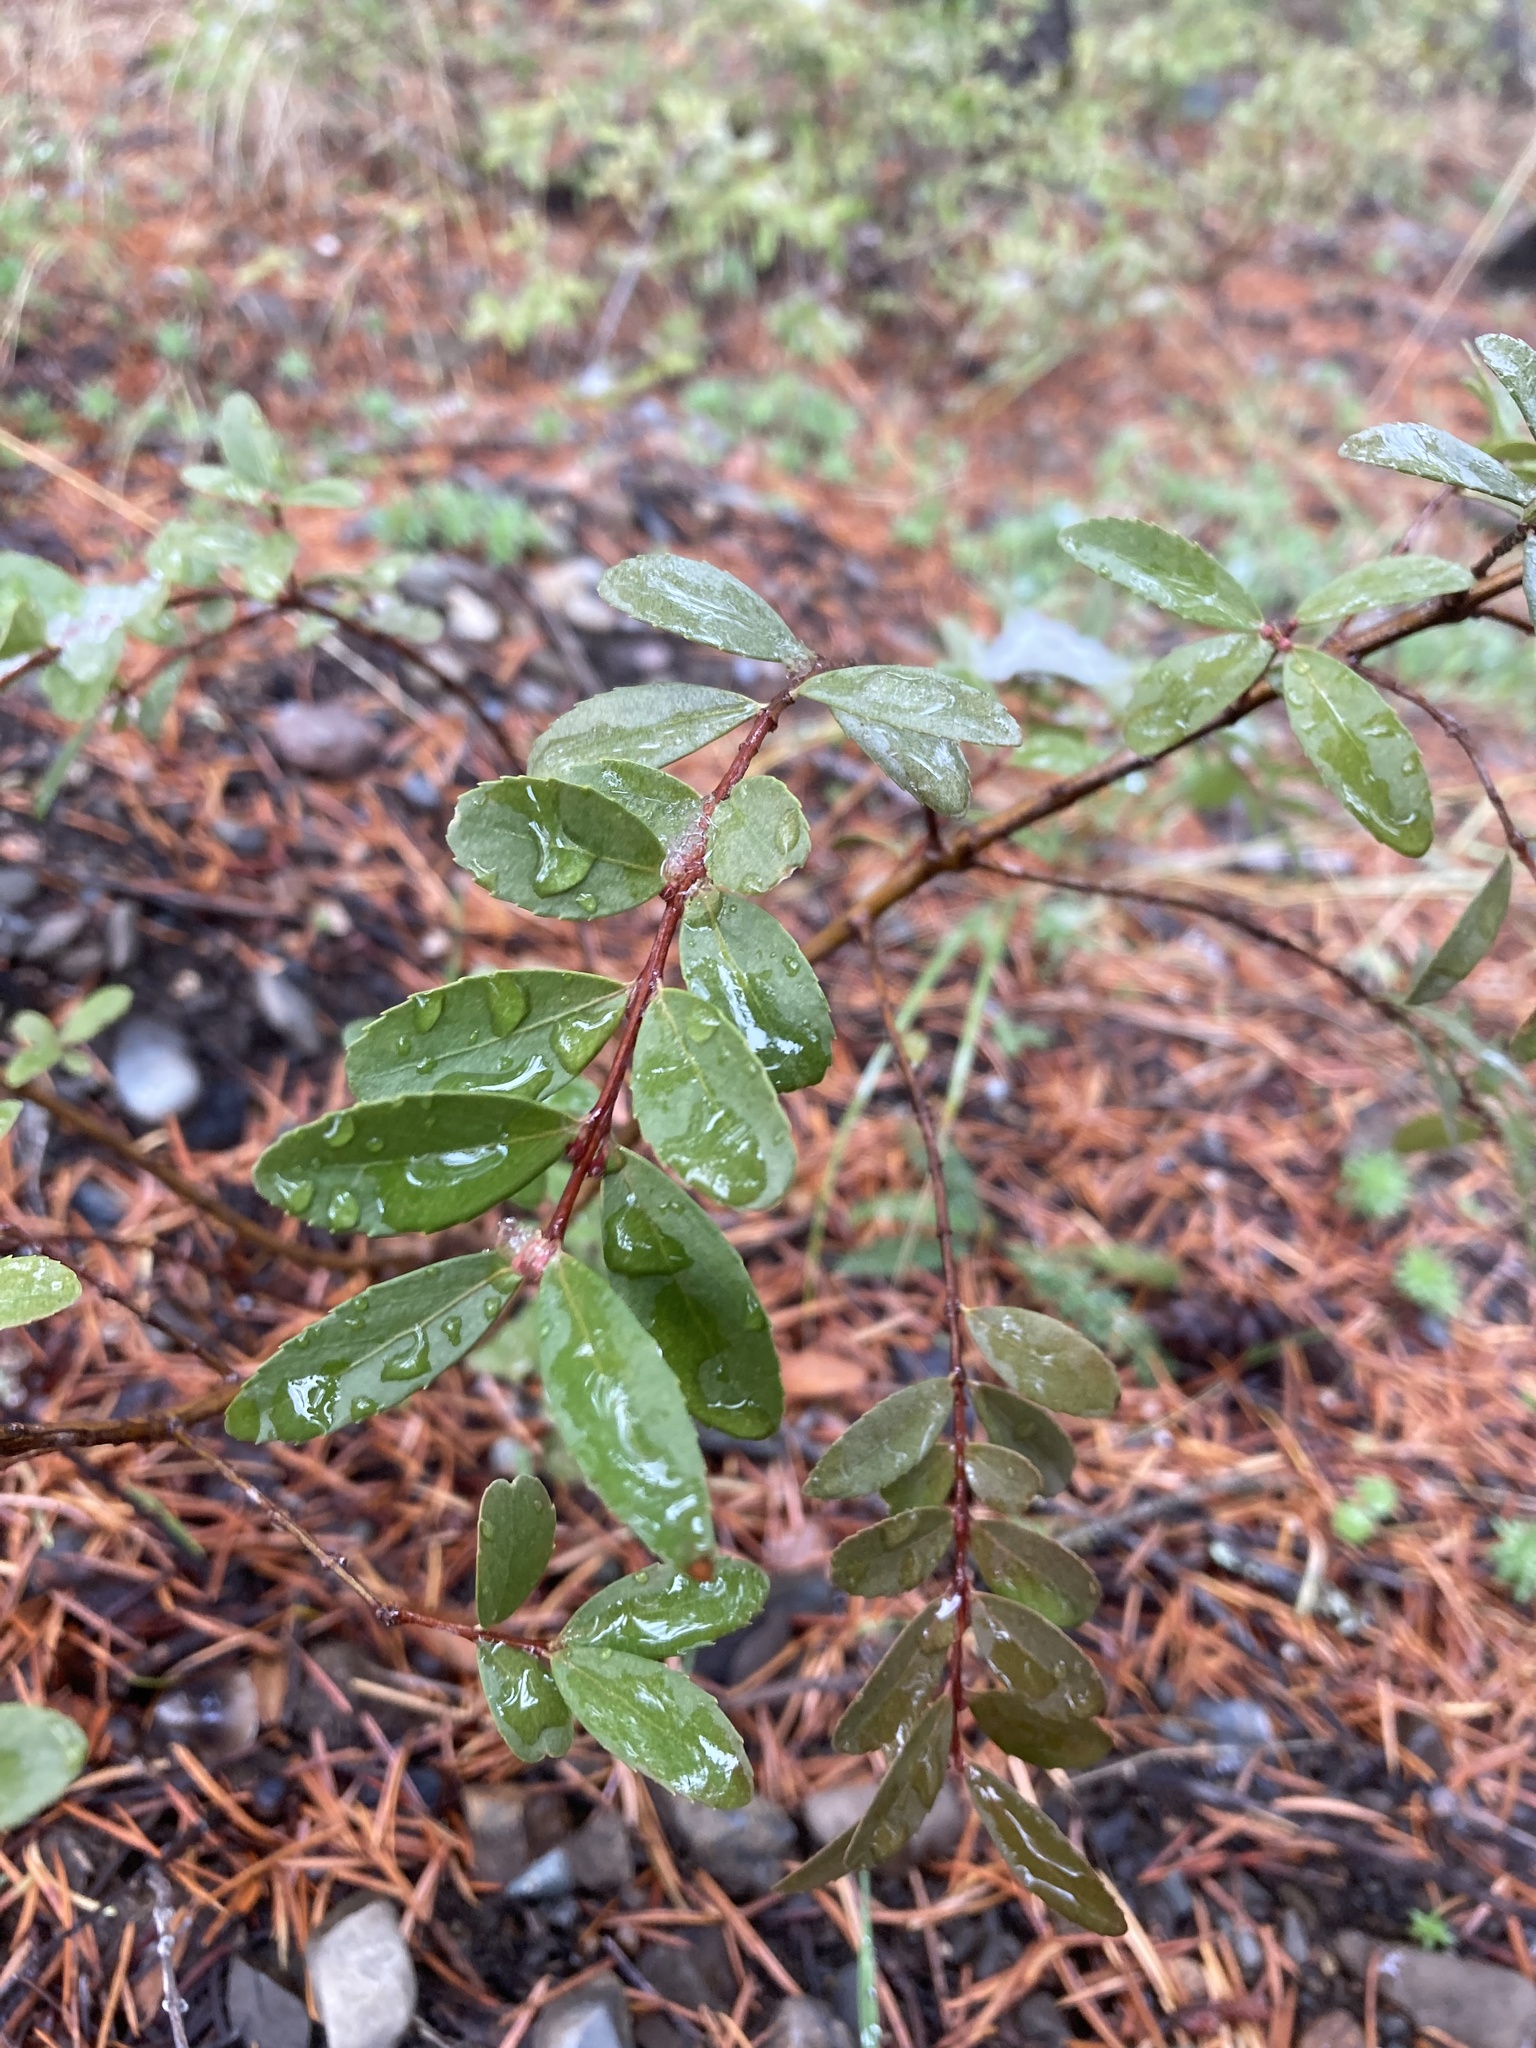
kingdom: Plantae
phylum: Tracheophyta
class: Magnoliopsida
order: Celastrales
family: Celastraceae
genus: Paxistima
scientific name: Paxistima myrsinites
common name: Mountain-lover
